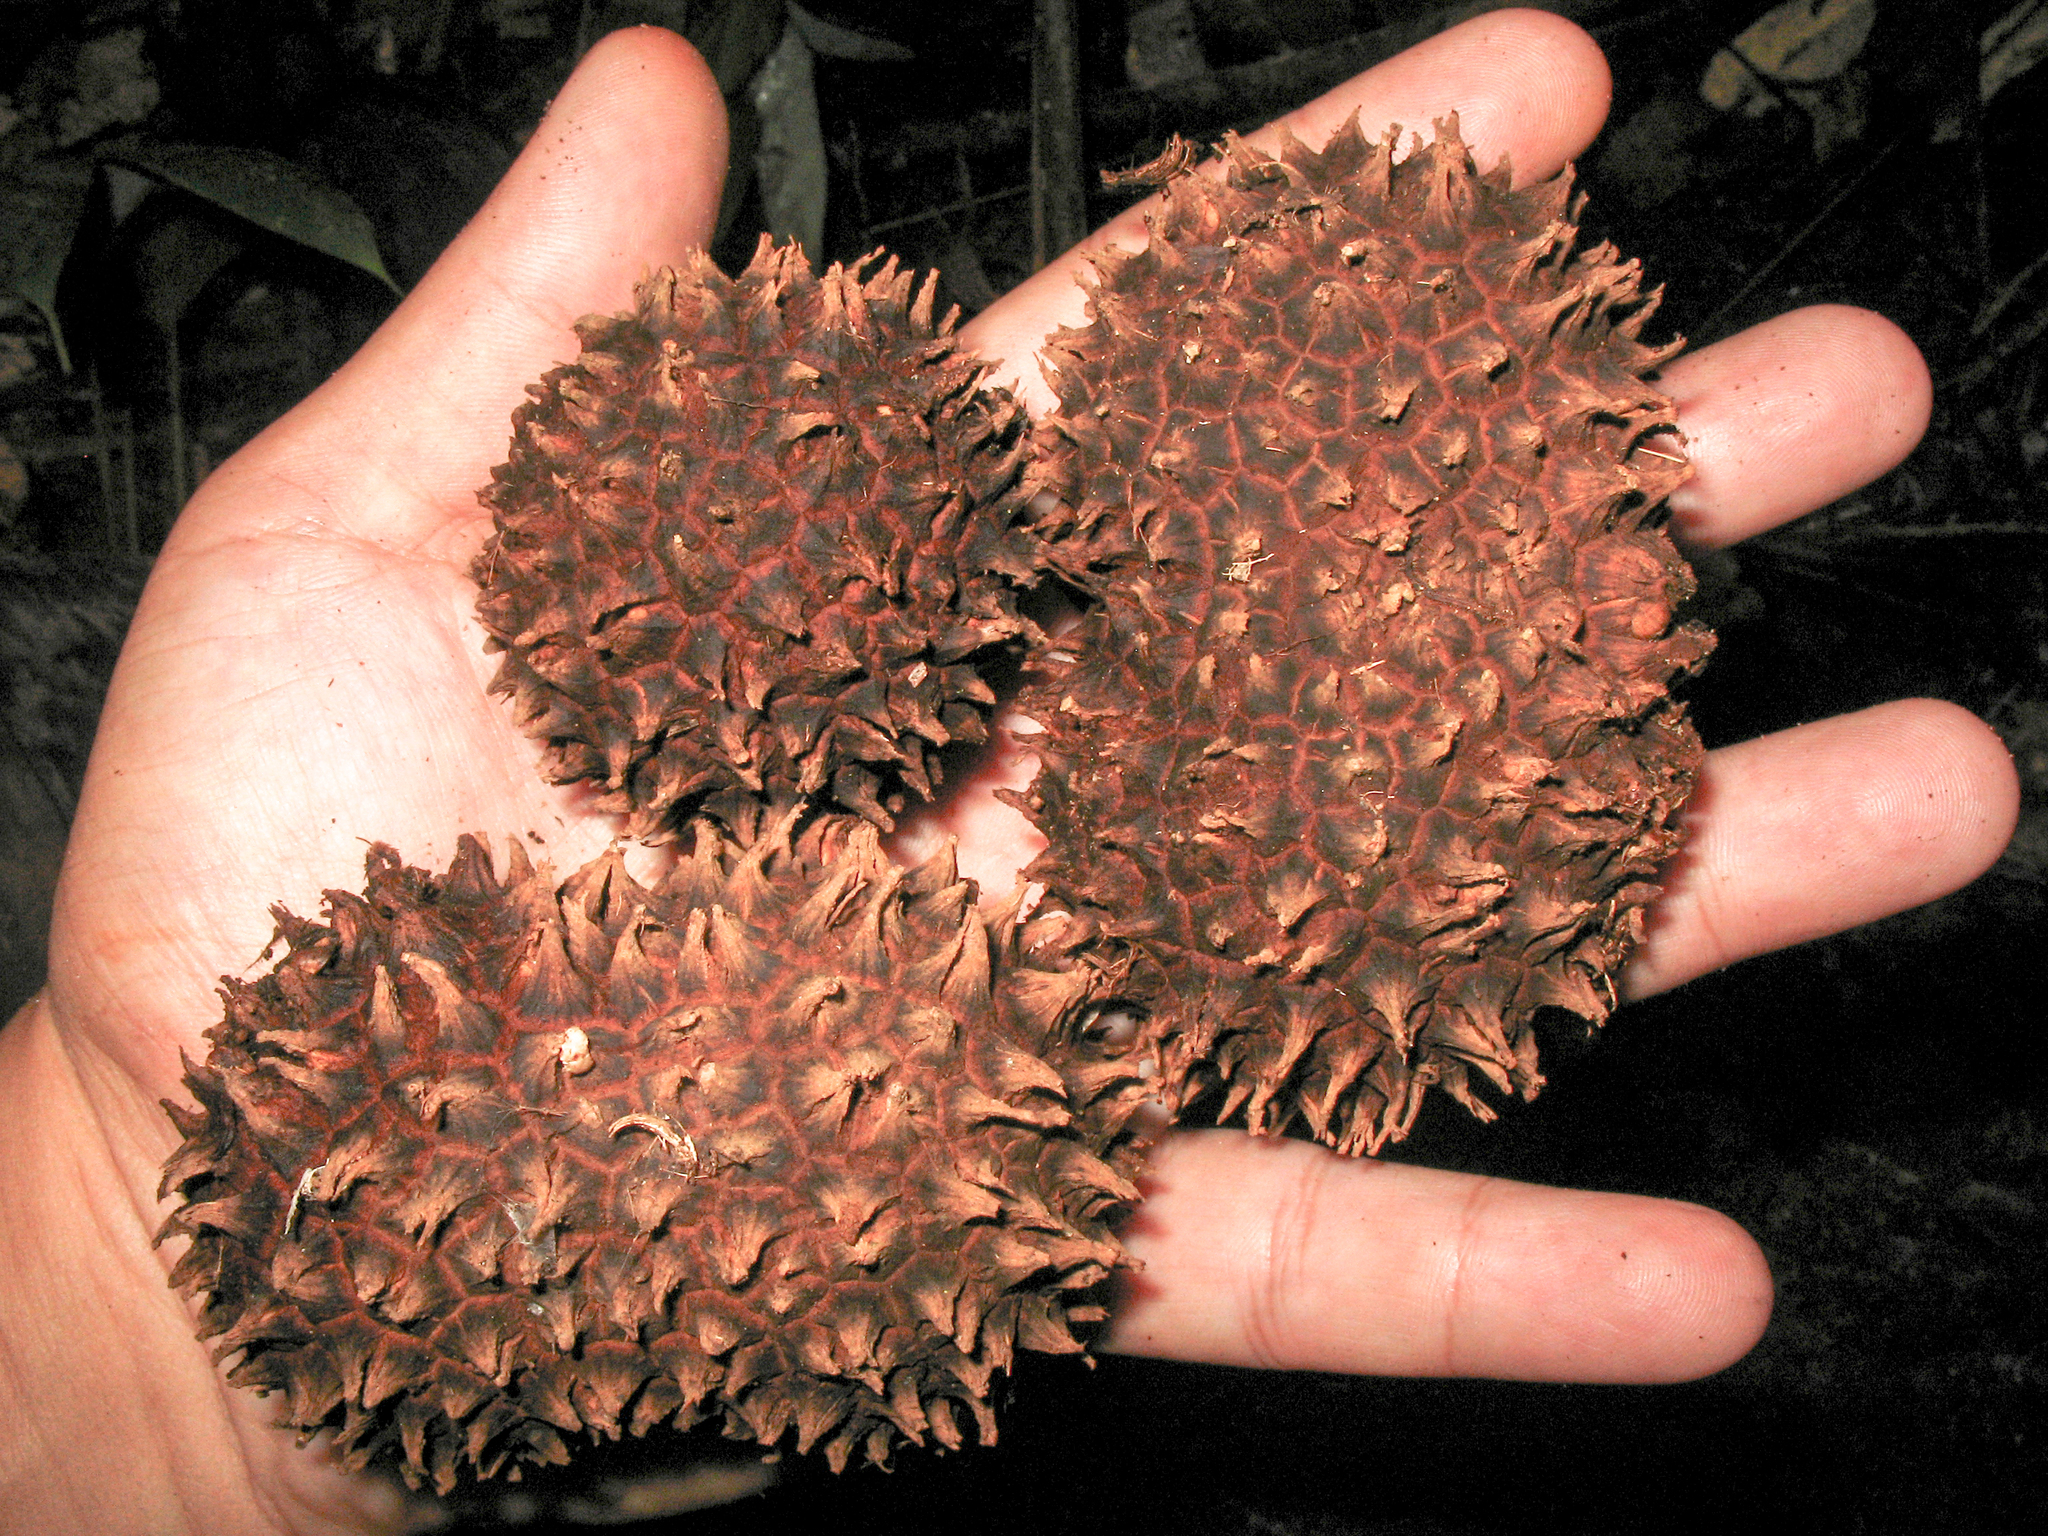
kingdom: Plantae
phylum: Tracheophyta
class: Liliopsida
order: Arecales
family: Arecaceae
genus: Manicaria
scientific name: Manicaria saccifera
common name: Sea coconut
